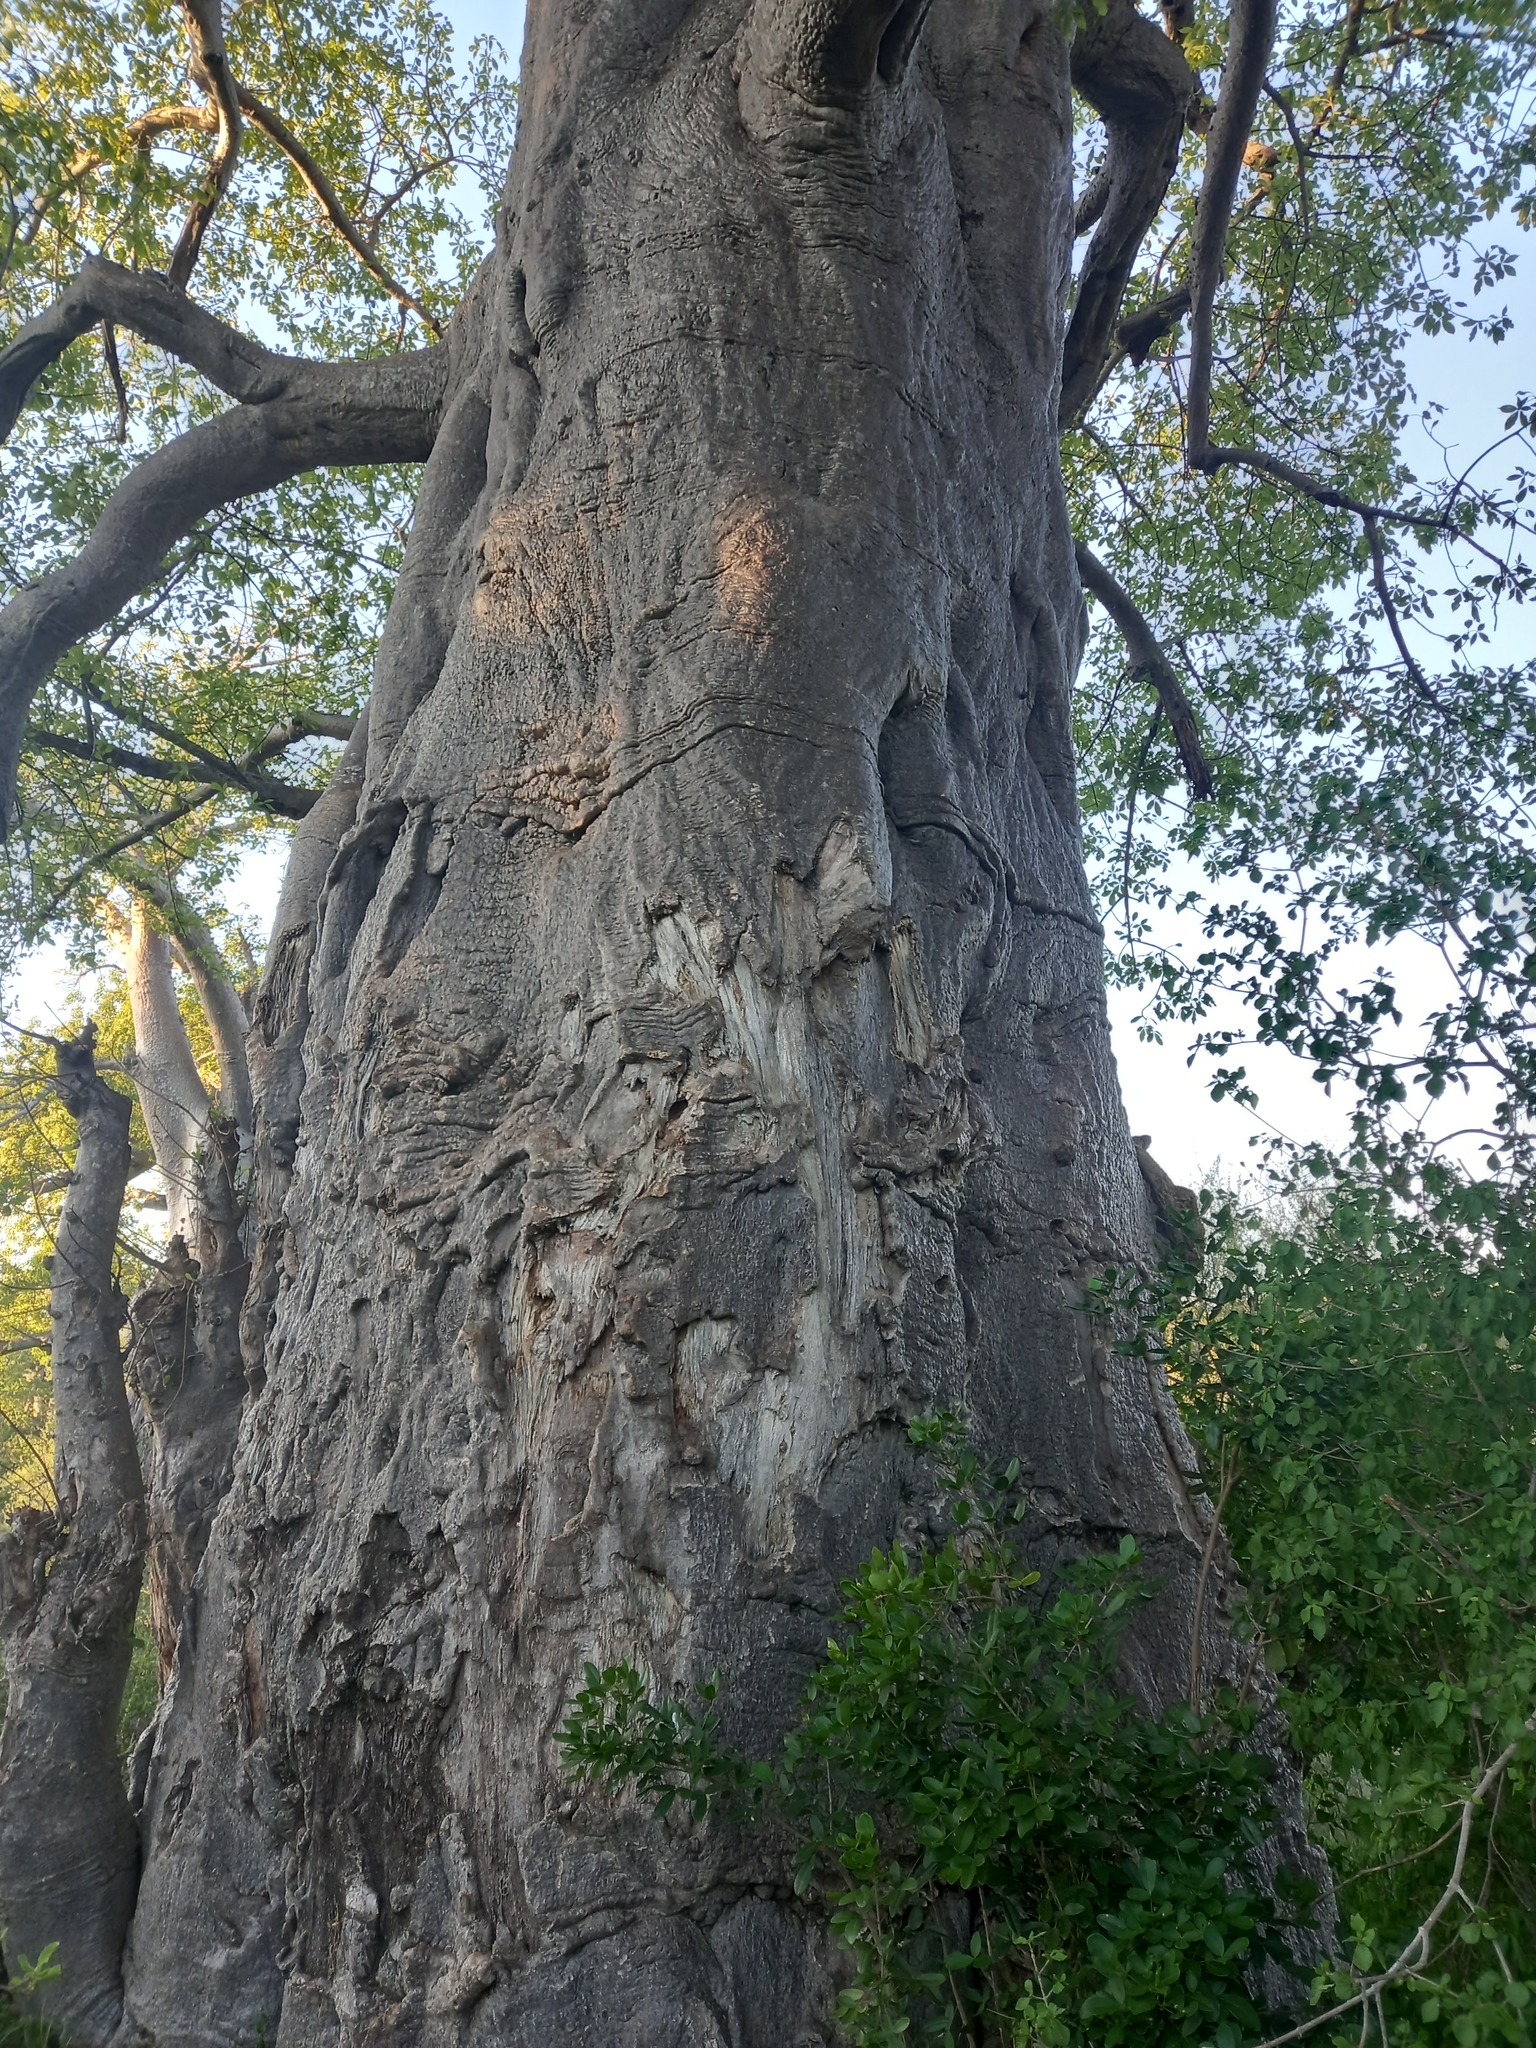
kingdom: Plantae
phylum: Tracheophyta
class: Magnoliopsida
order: Malvales
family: Malvaceae
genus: Adansonia
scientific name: Adansonia digitata
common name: Dead-rat-tree
